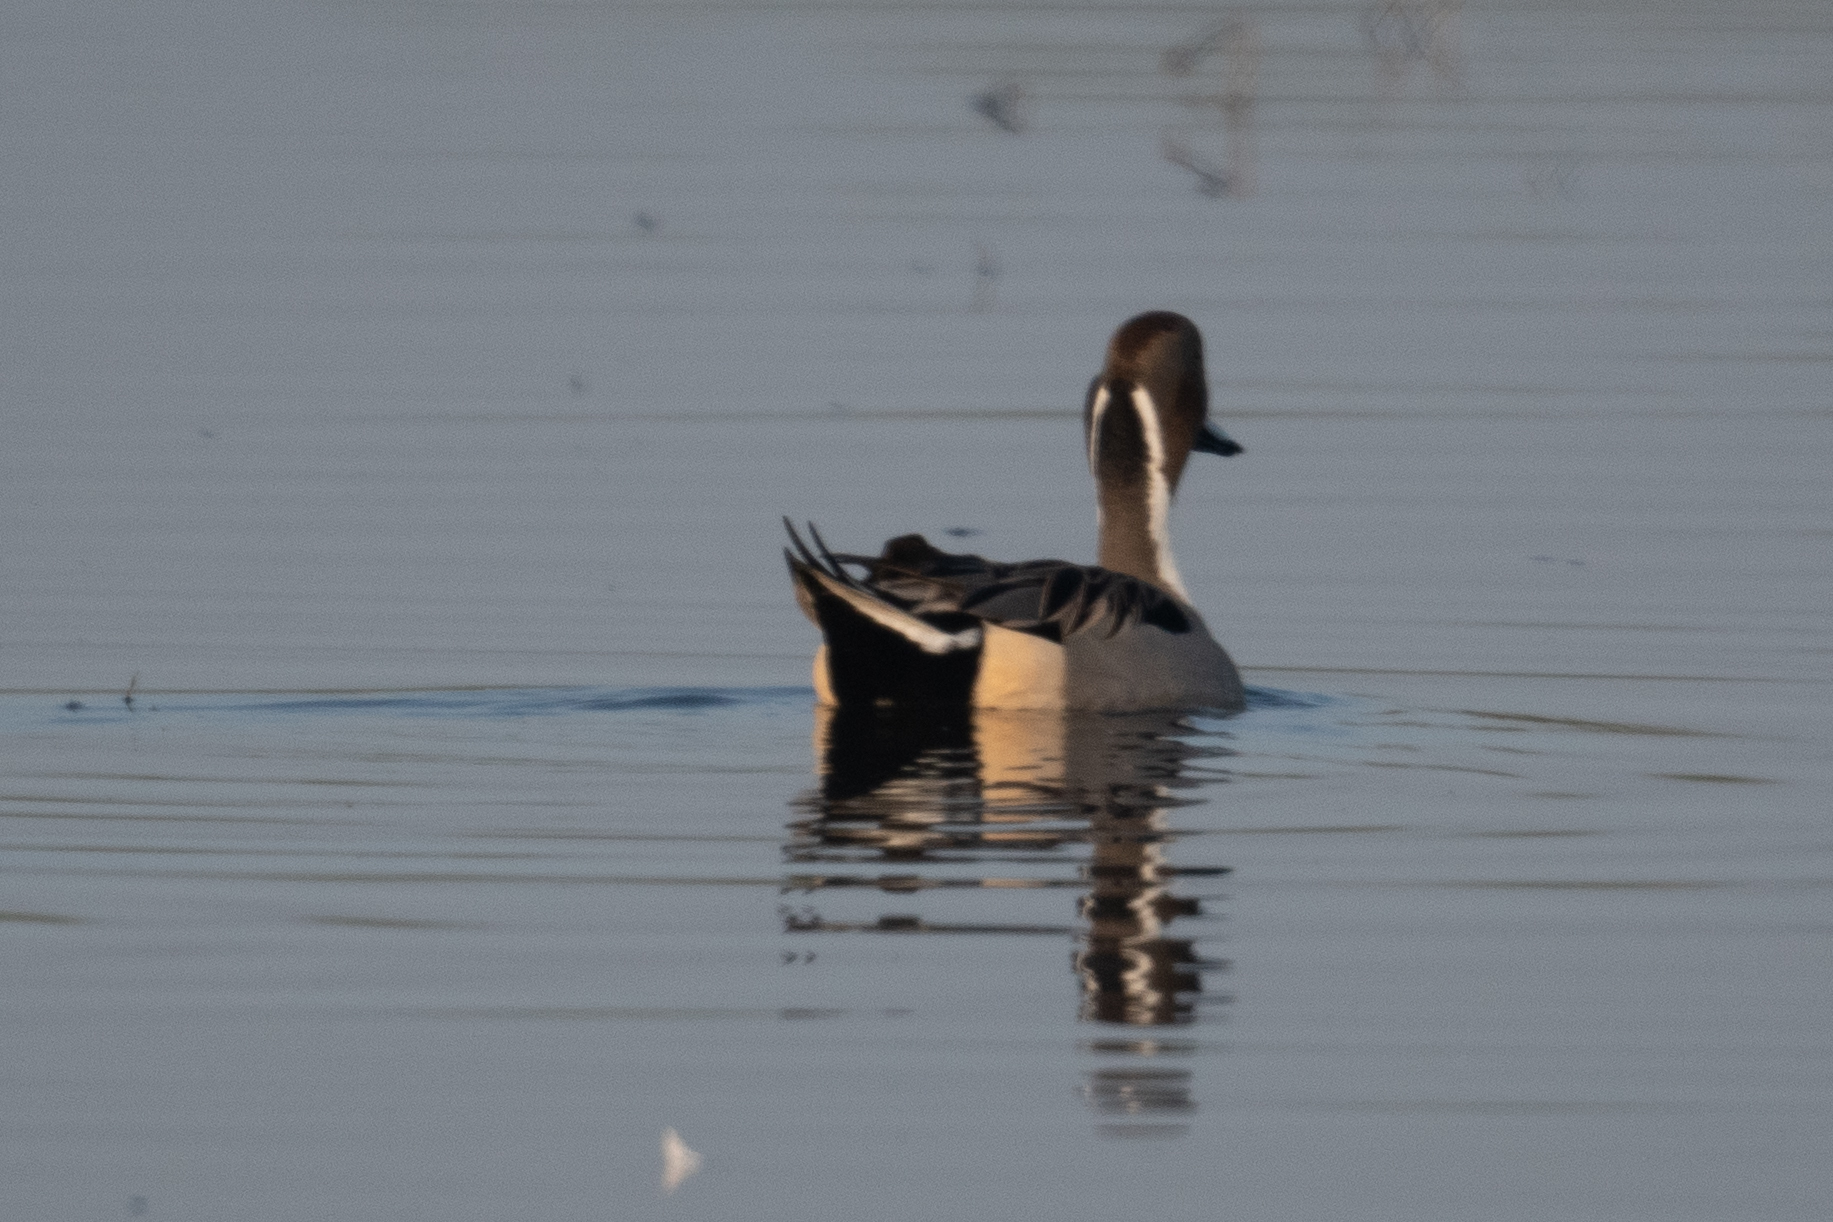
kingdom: Animalia
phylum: Chordata
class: Aves
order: Anseriformes
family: Anatidae
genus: Anas
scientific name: Anas acuta
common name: Northern pintail
